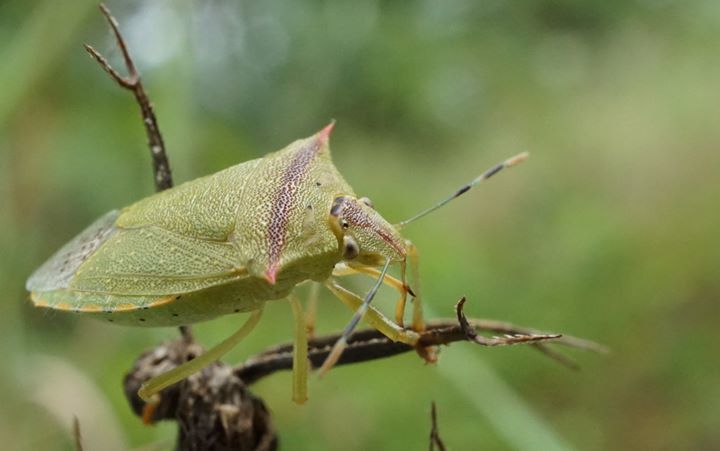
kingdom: Animalia
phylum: Arthropoda
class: Insecta
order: Hemiptera
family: Pentatomidae
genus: Thyanta
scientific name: Thyanta perditor
